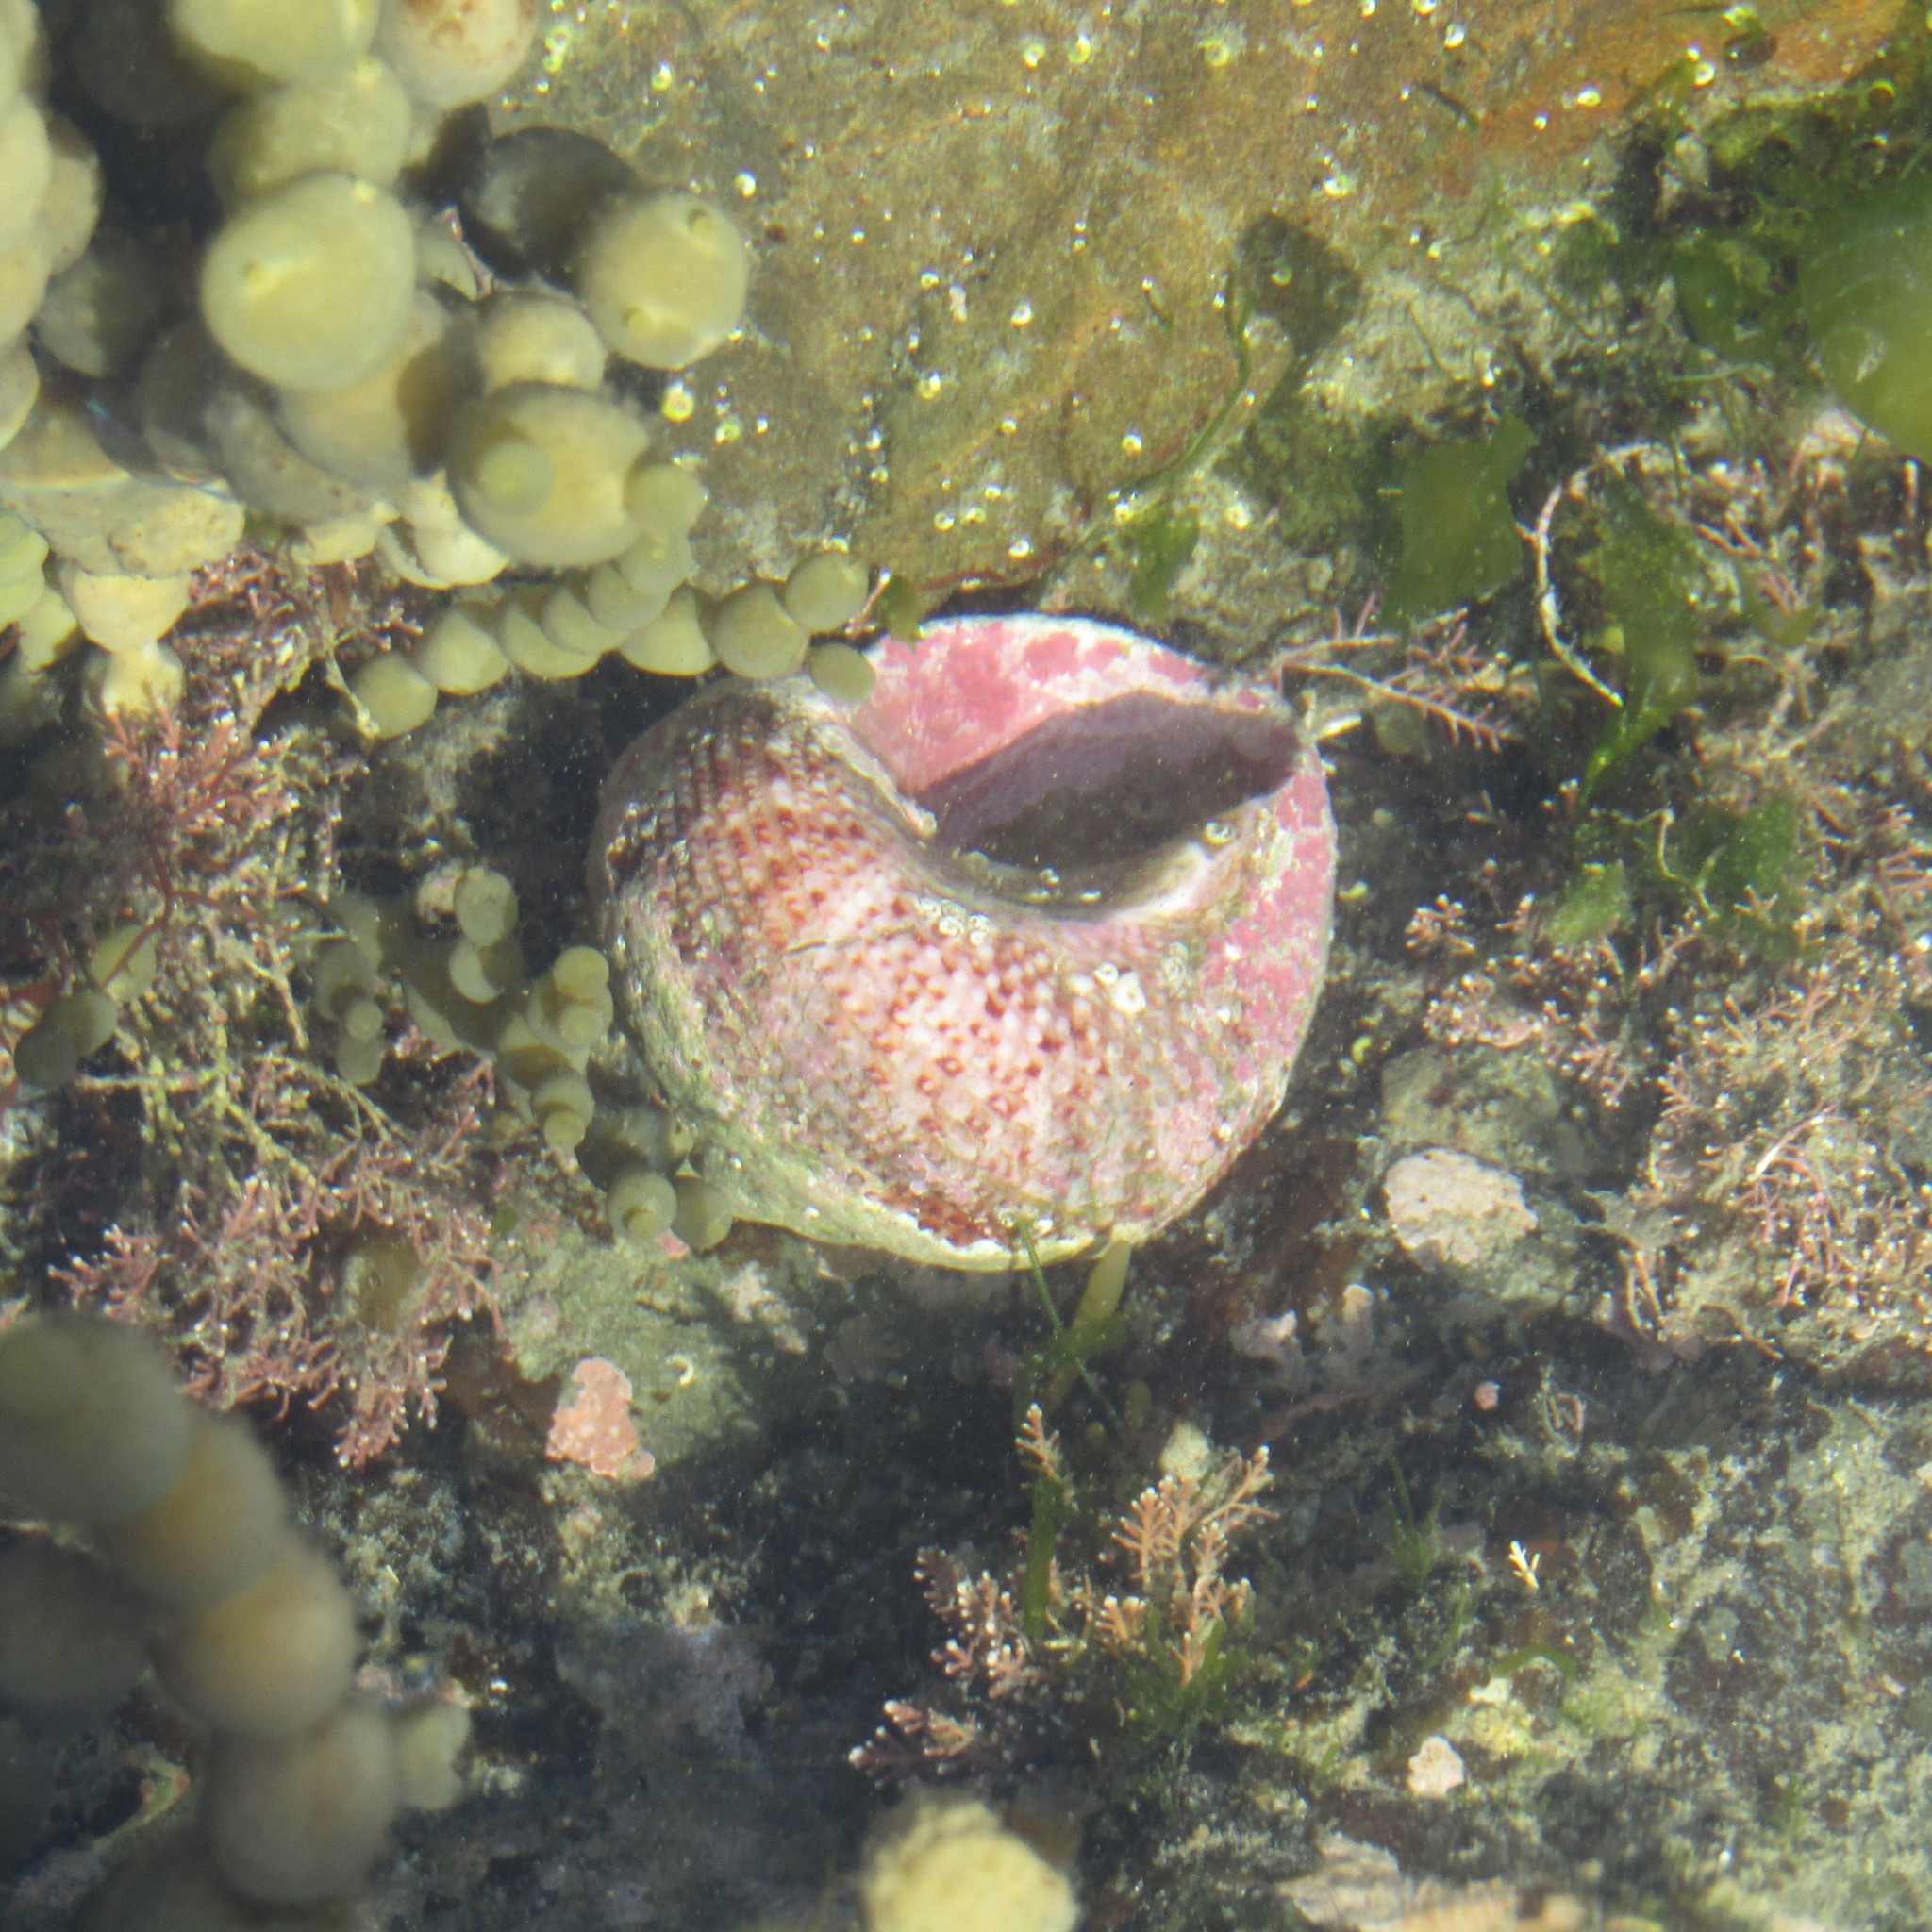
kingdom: Animalia
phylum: Mollusca
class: Gastropoda
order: Trochida
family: Turbinidae
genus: Modelia
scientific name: Modelia granosa
